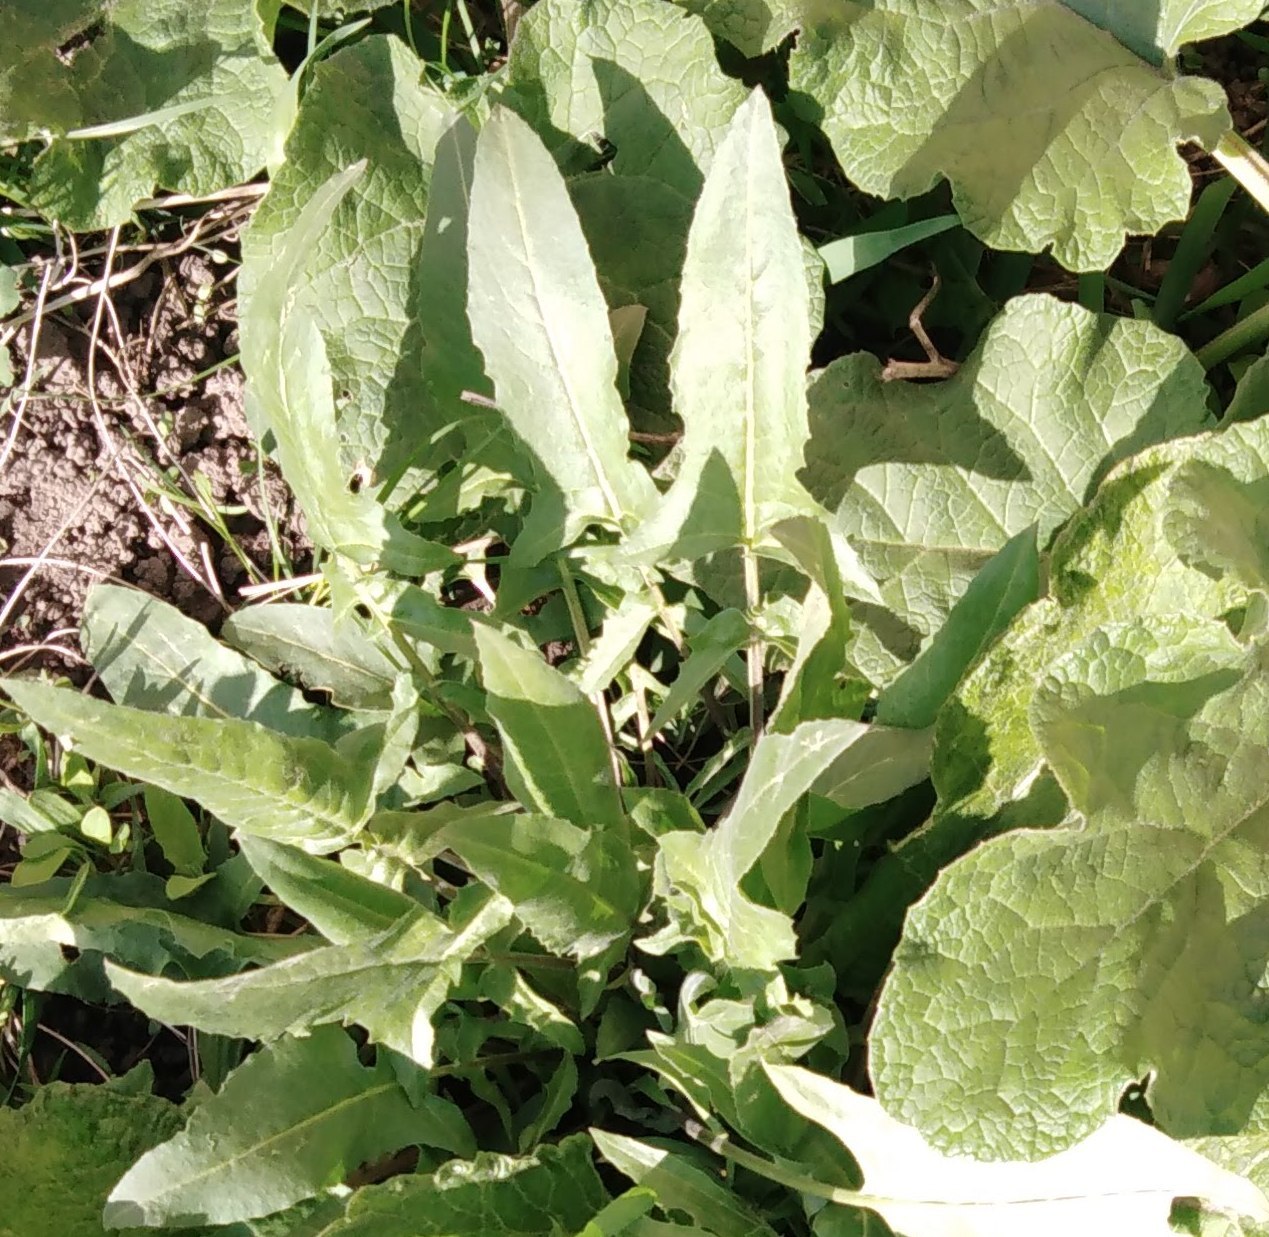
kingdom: Plantae
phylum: Tracheophyta
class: Magnoliopsida
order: Brassicales
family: Brassicaceae
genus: Bunias
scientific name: Bunias orientalis
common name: Warty-cabbage
